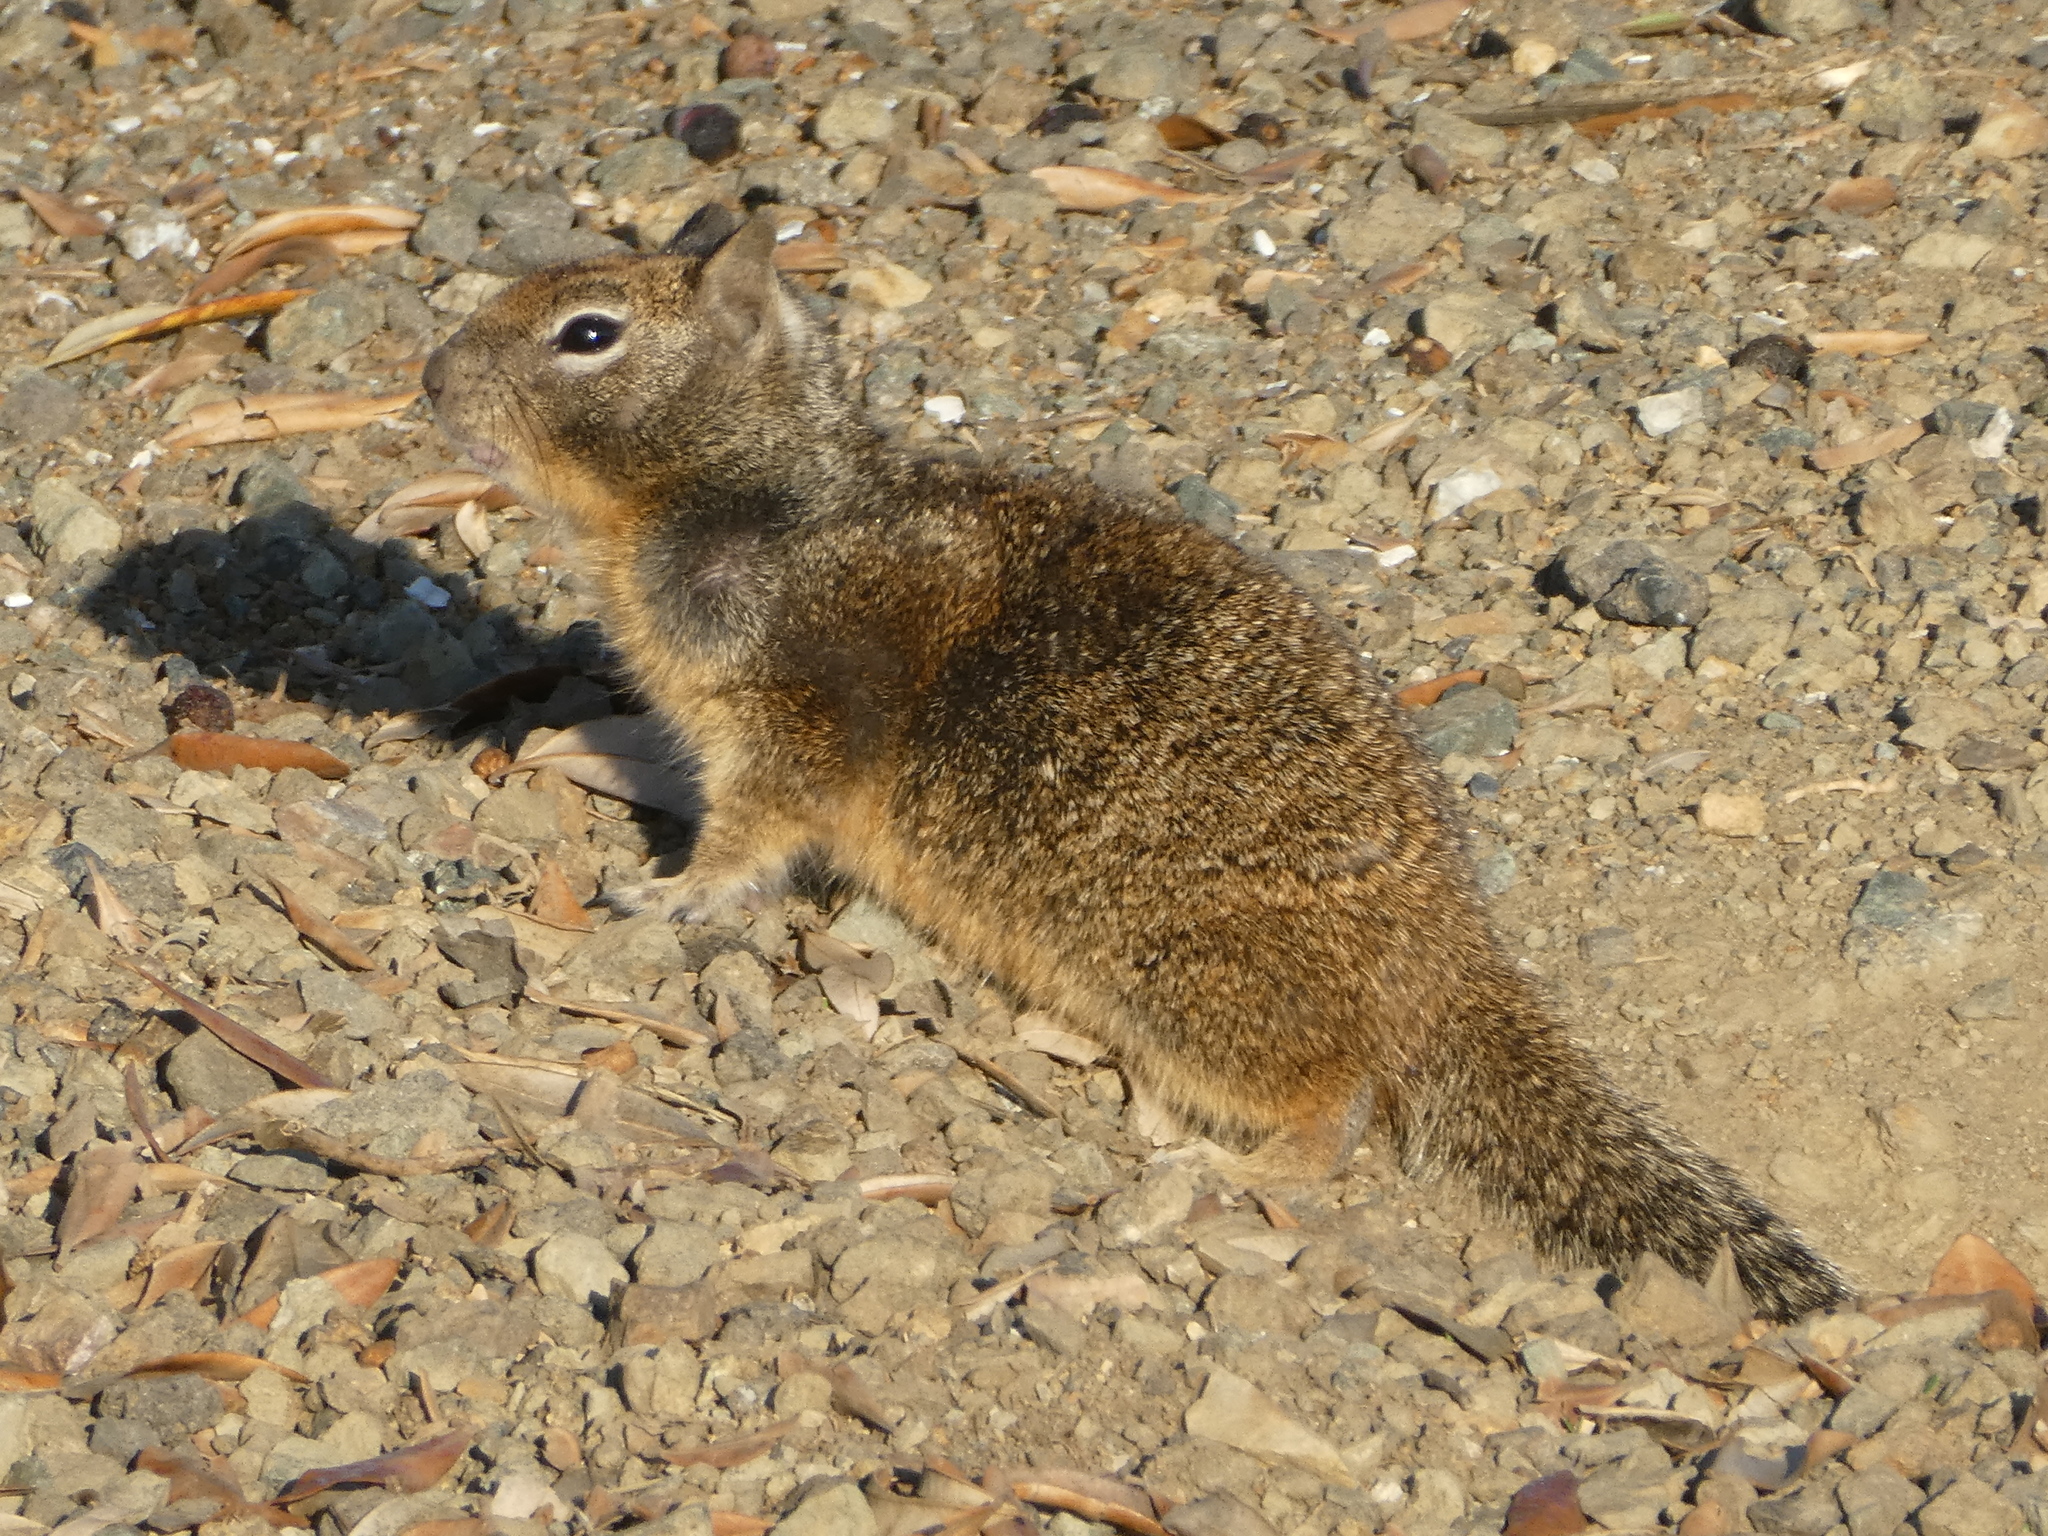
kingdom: Animalia
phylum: Chordata
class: Mammalia
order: Rodentia
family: Sciuridae
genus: Otospermophilus
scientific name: Otospermophilus beecheyi
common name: California ground squirrel
